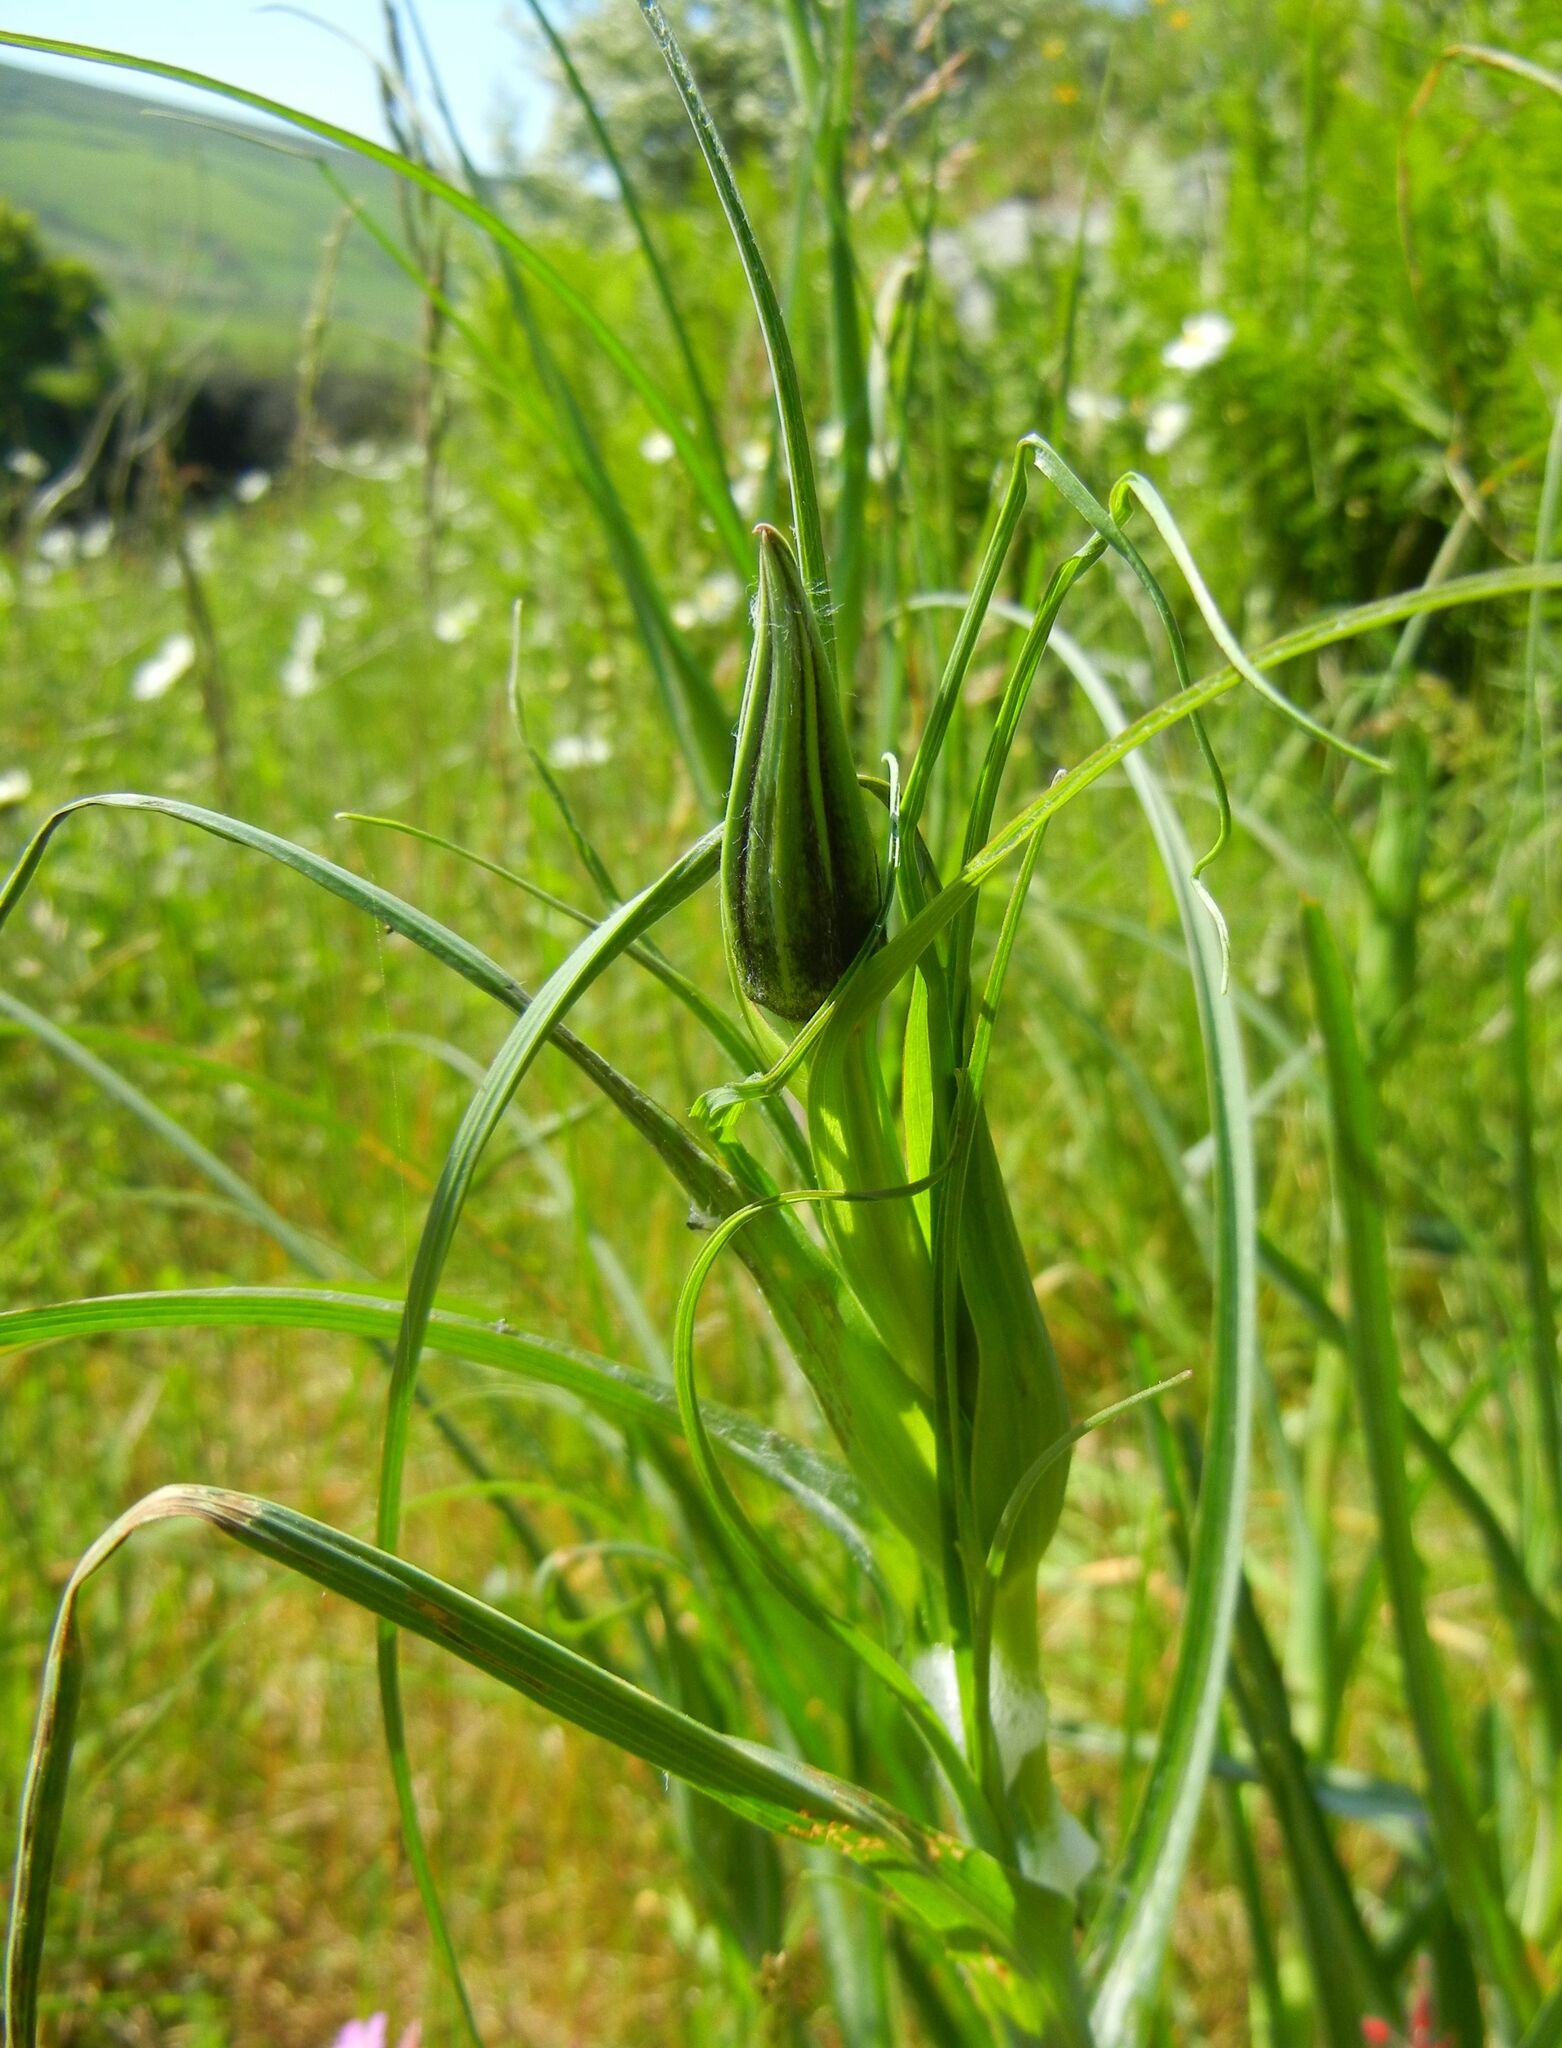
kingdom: Plantae
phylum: Tracheophyta
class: Magnoliopsida
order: Asterales
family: Asteraceae
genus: Tragopogon
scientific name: Tragopogon pratensis
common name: Goat's-beard
